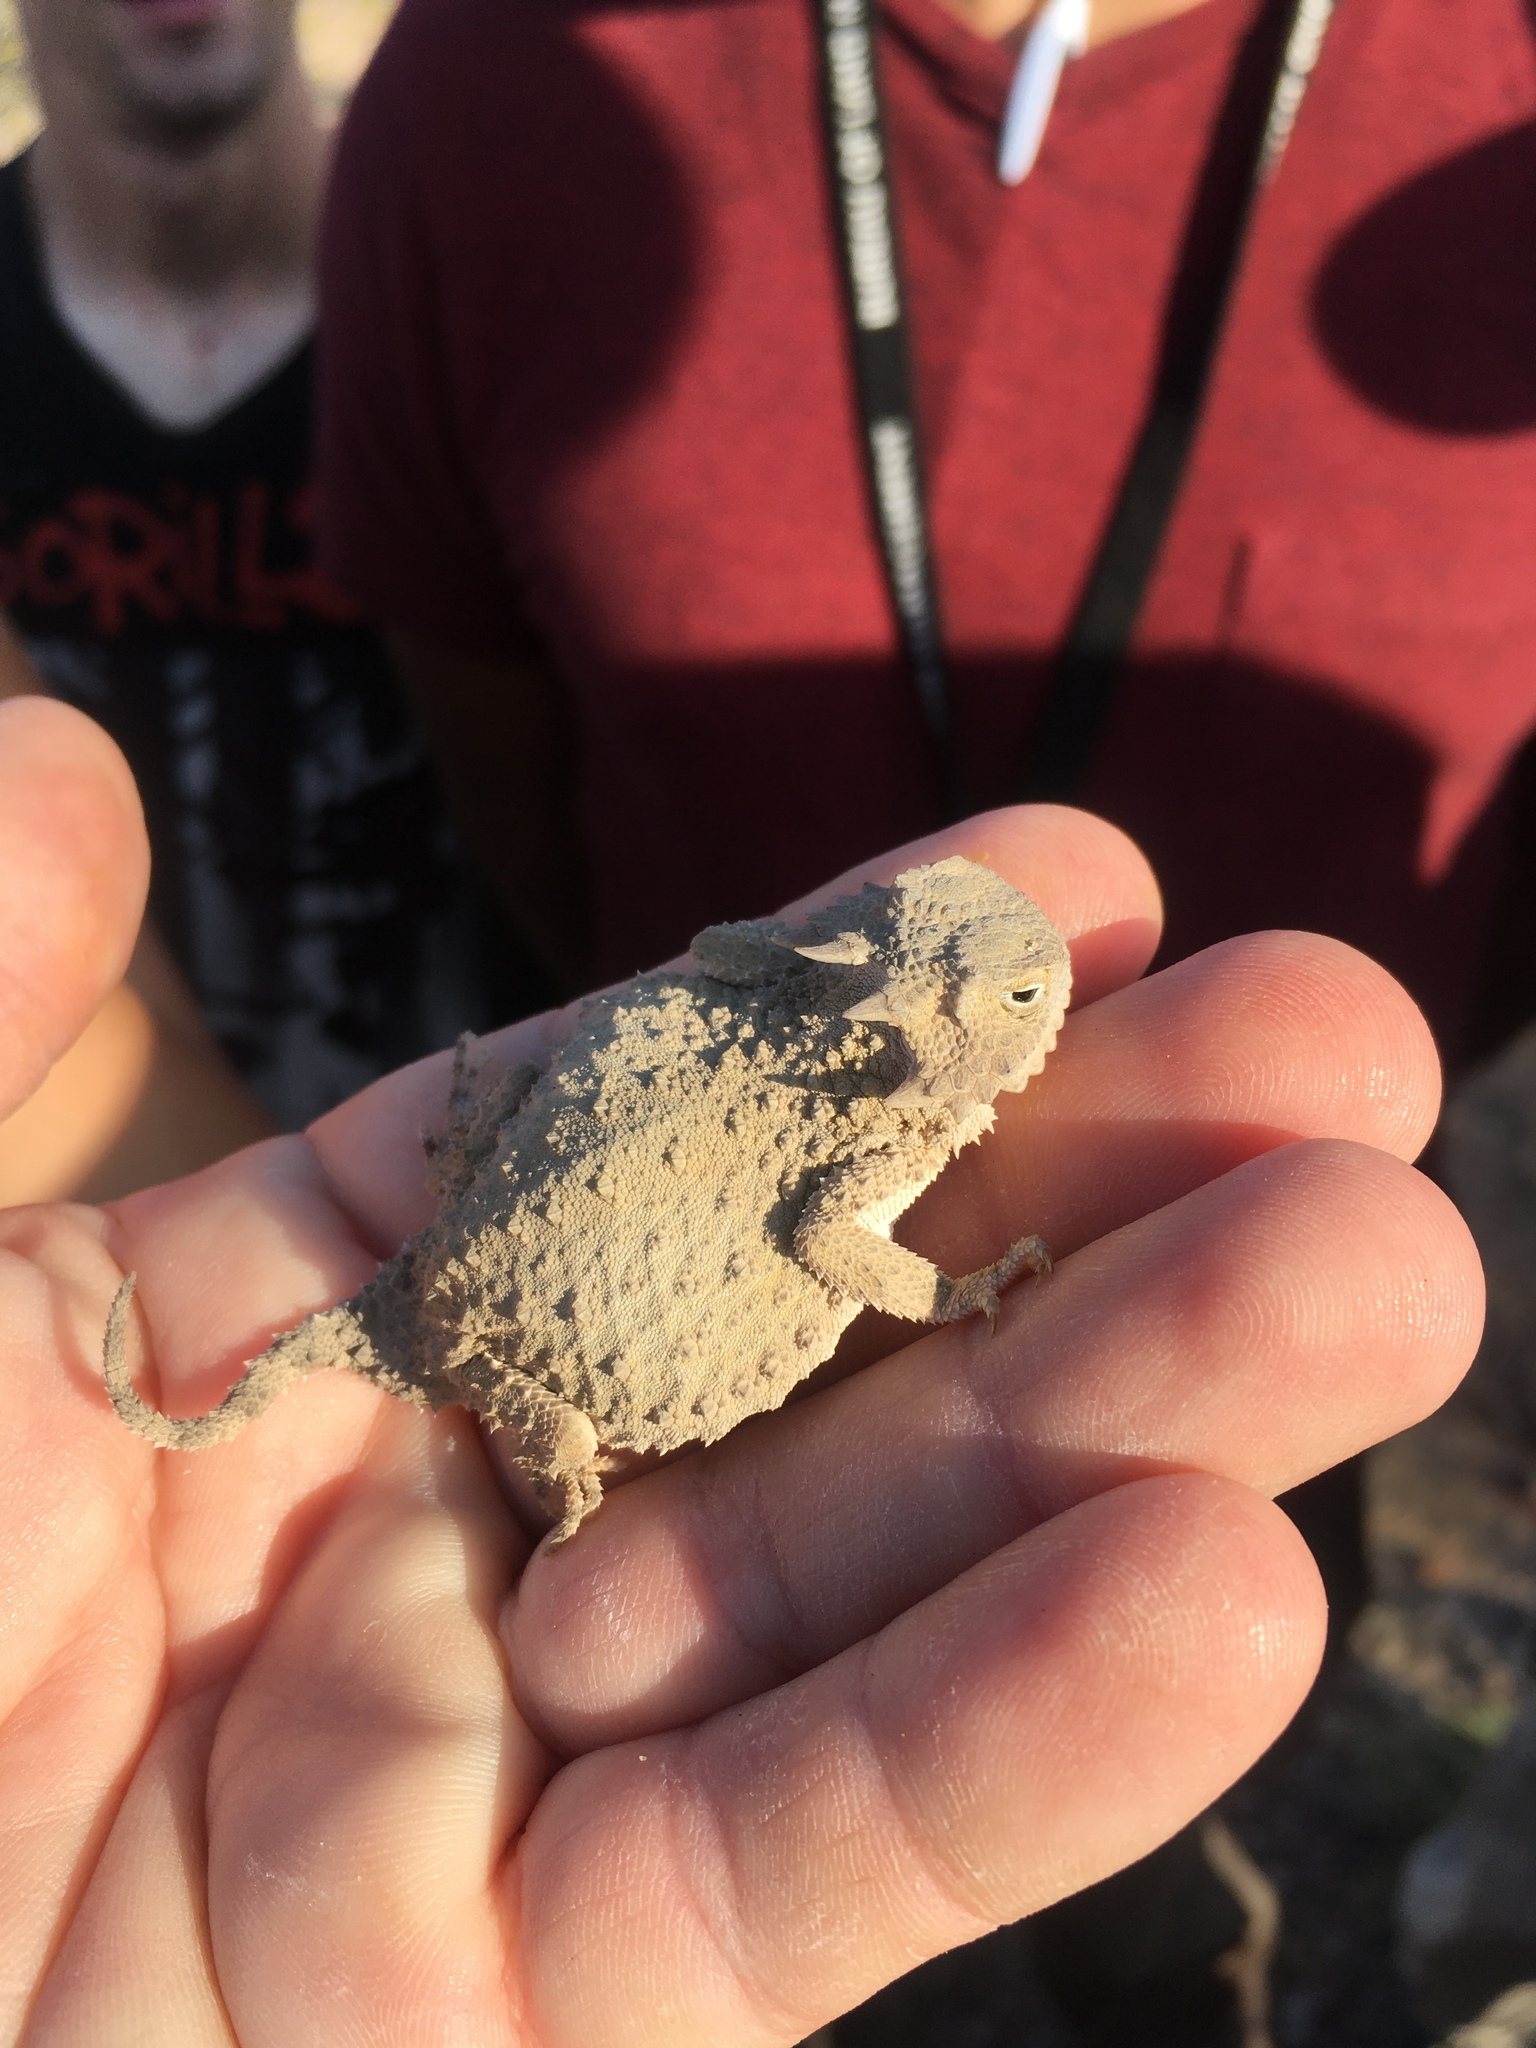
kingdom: Animalia
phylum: Chordata
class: Squamata
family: Phrynosomatidae
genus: Phrynosoma
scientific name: Phrynosoma modestum
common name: Roundtail horned lizard
